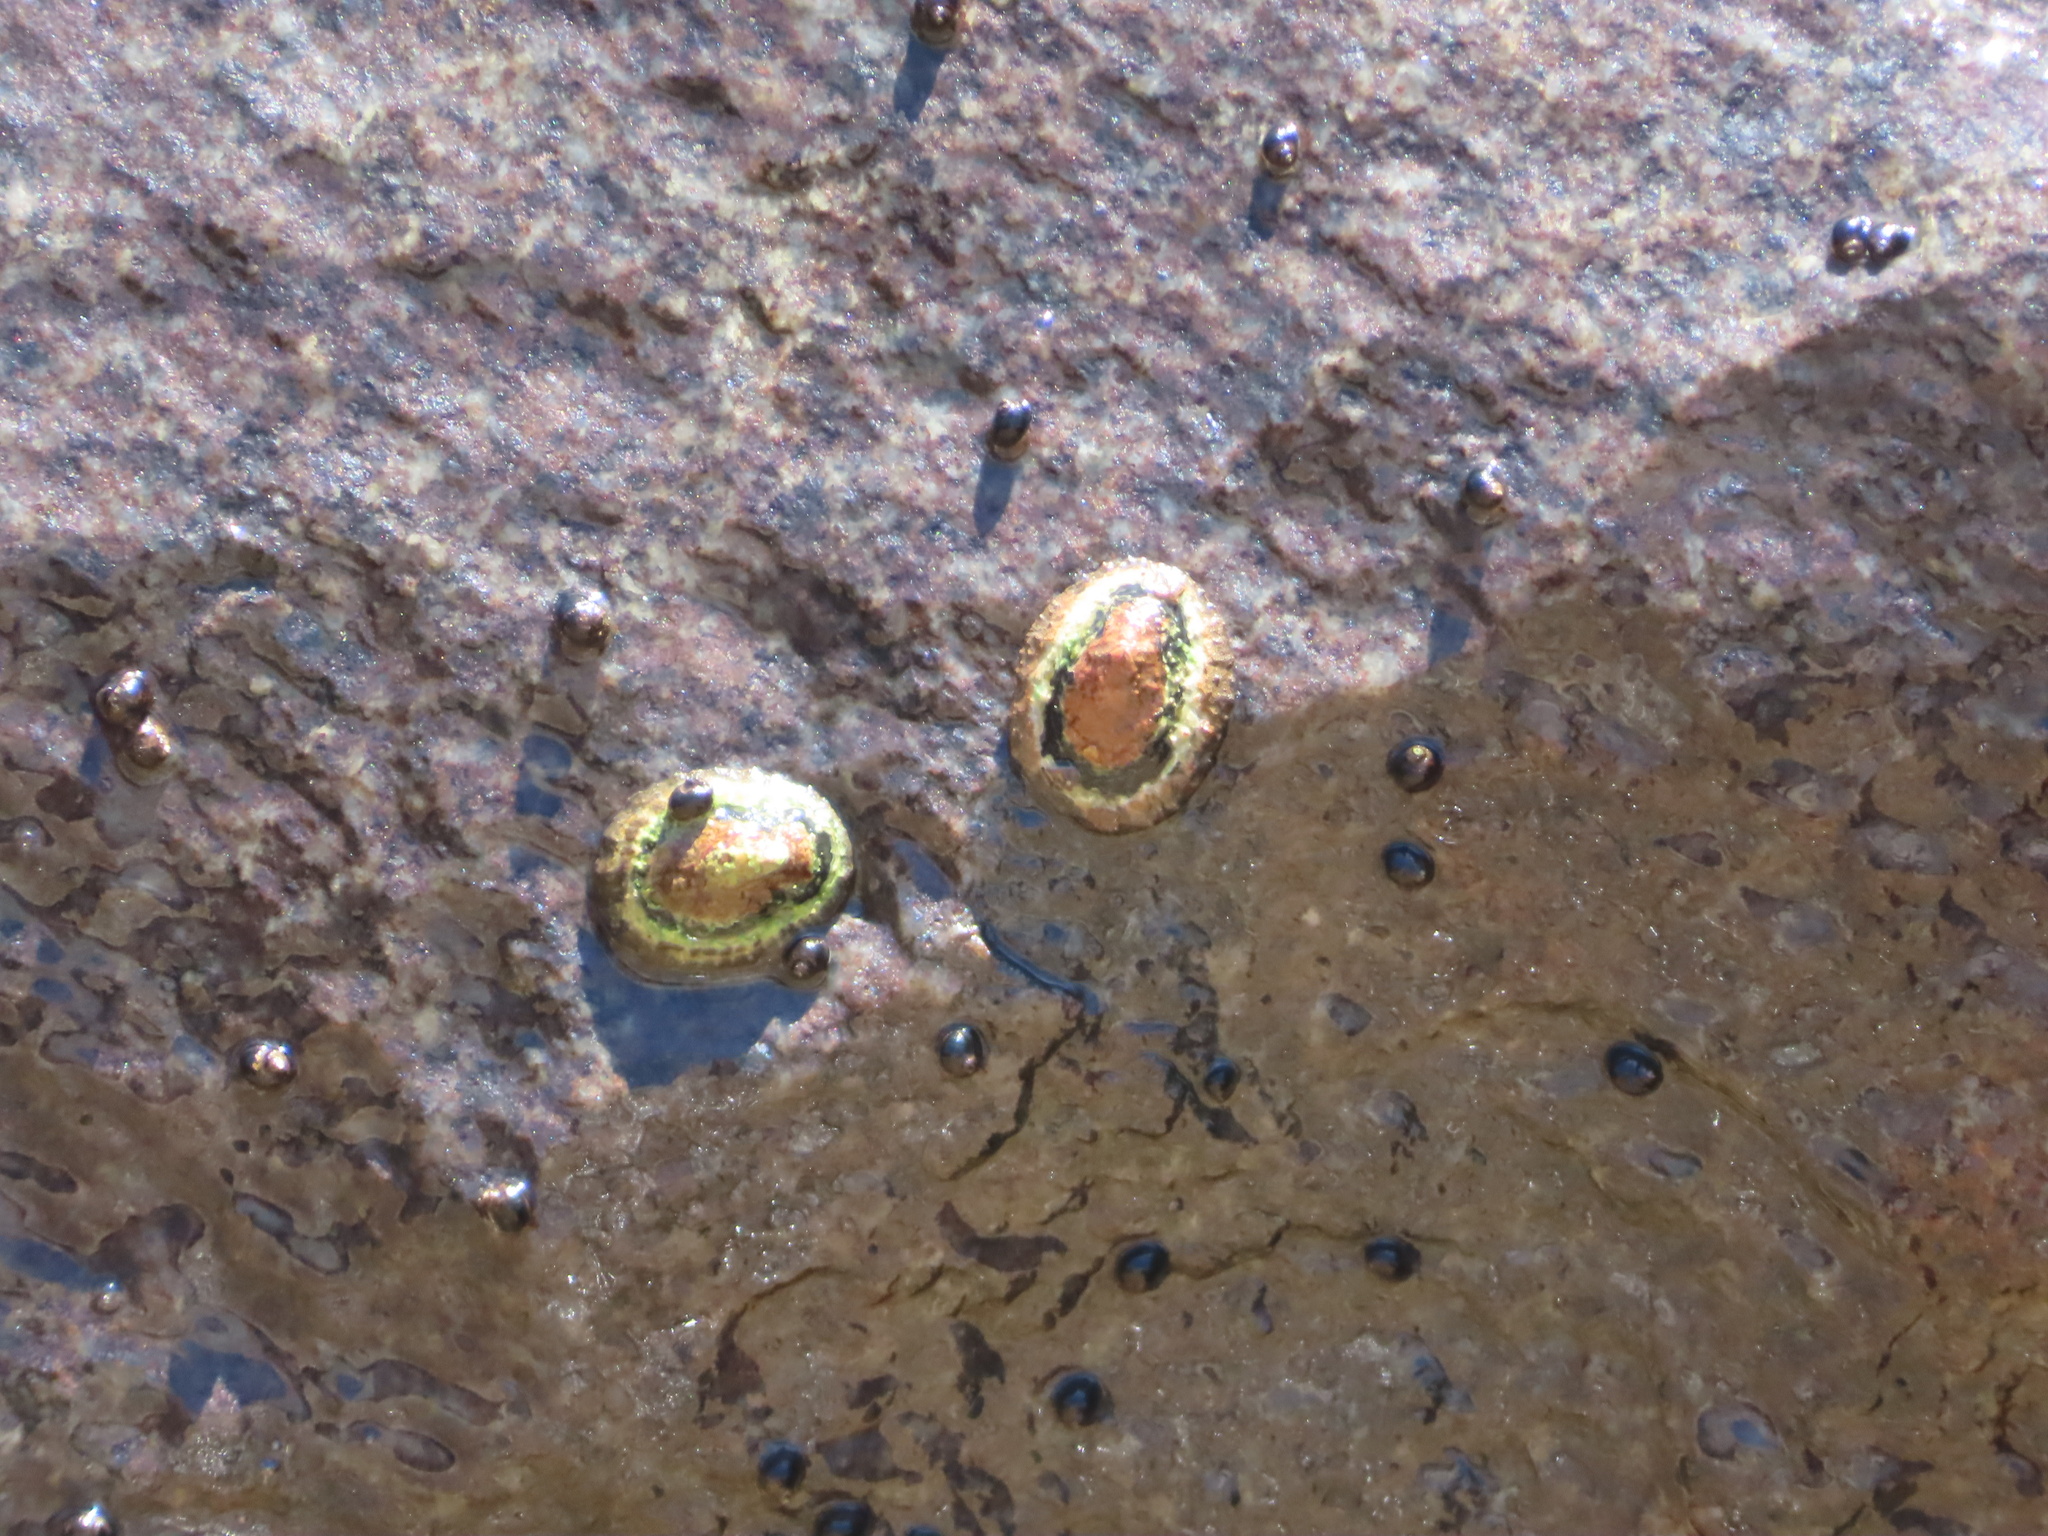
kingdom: Animalia
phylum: Mollusca
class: Gastropoda
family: Patellidae
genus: Scutellastra
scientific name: Scutellastra granularis
